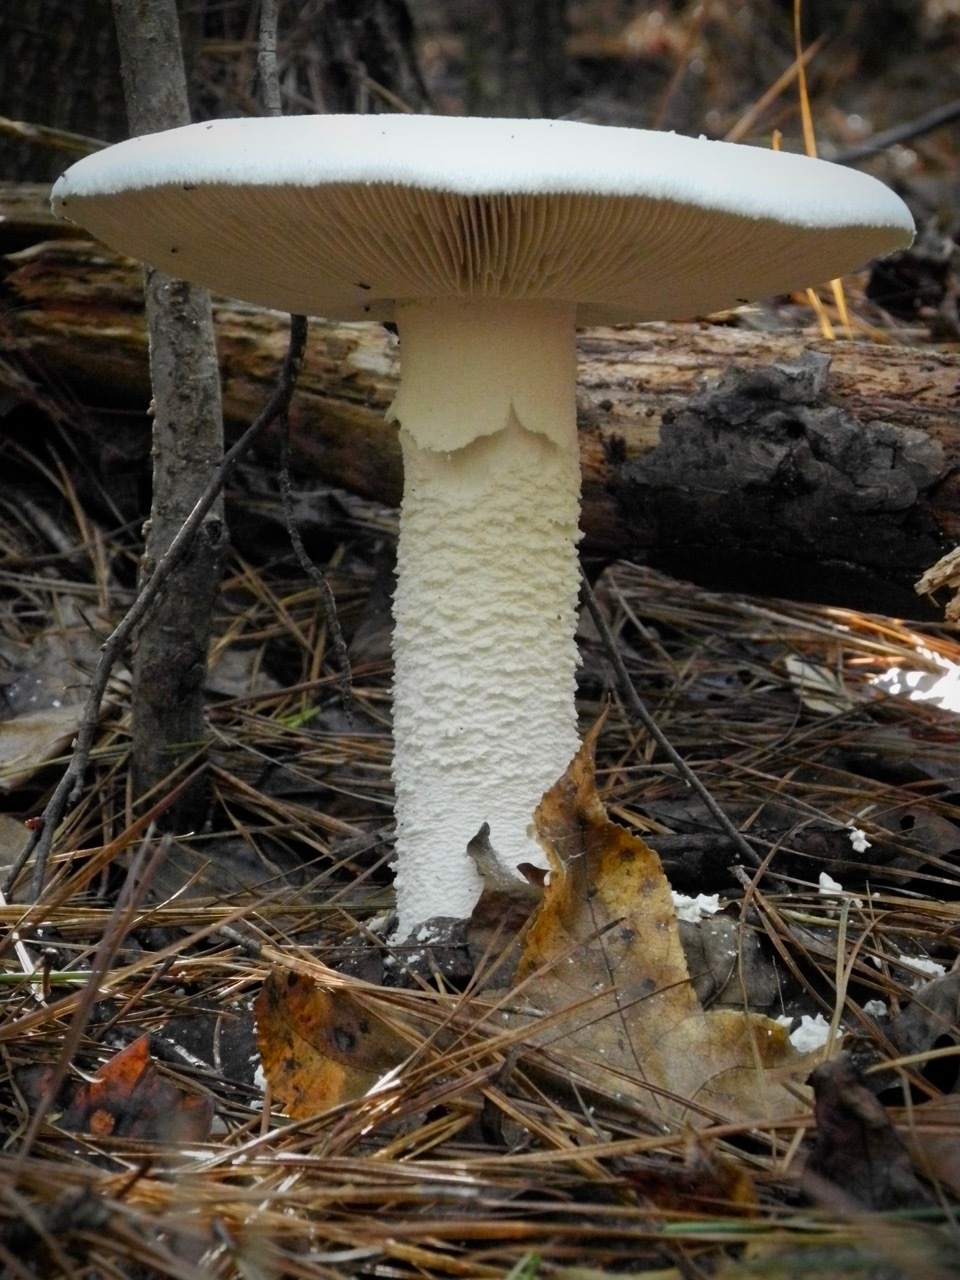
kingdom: Fungi
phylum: Basidiomycota
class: Agaricomycetes
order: Agaricales
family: Amanitaceae
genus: Amanita
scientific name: Amanita polypyramis
